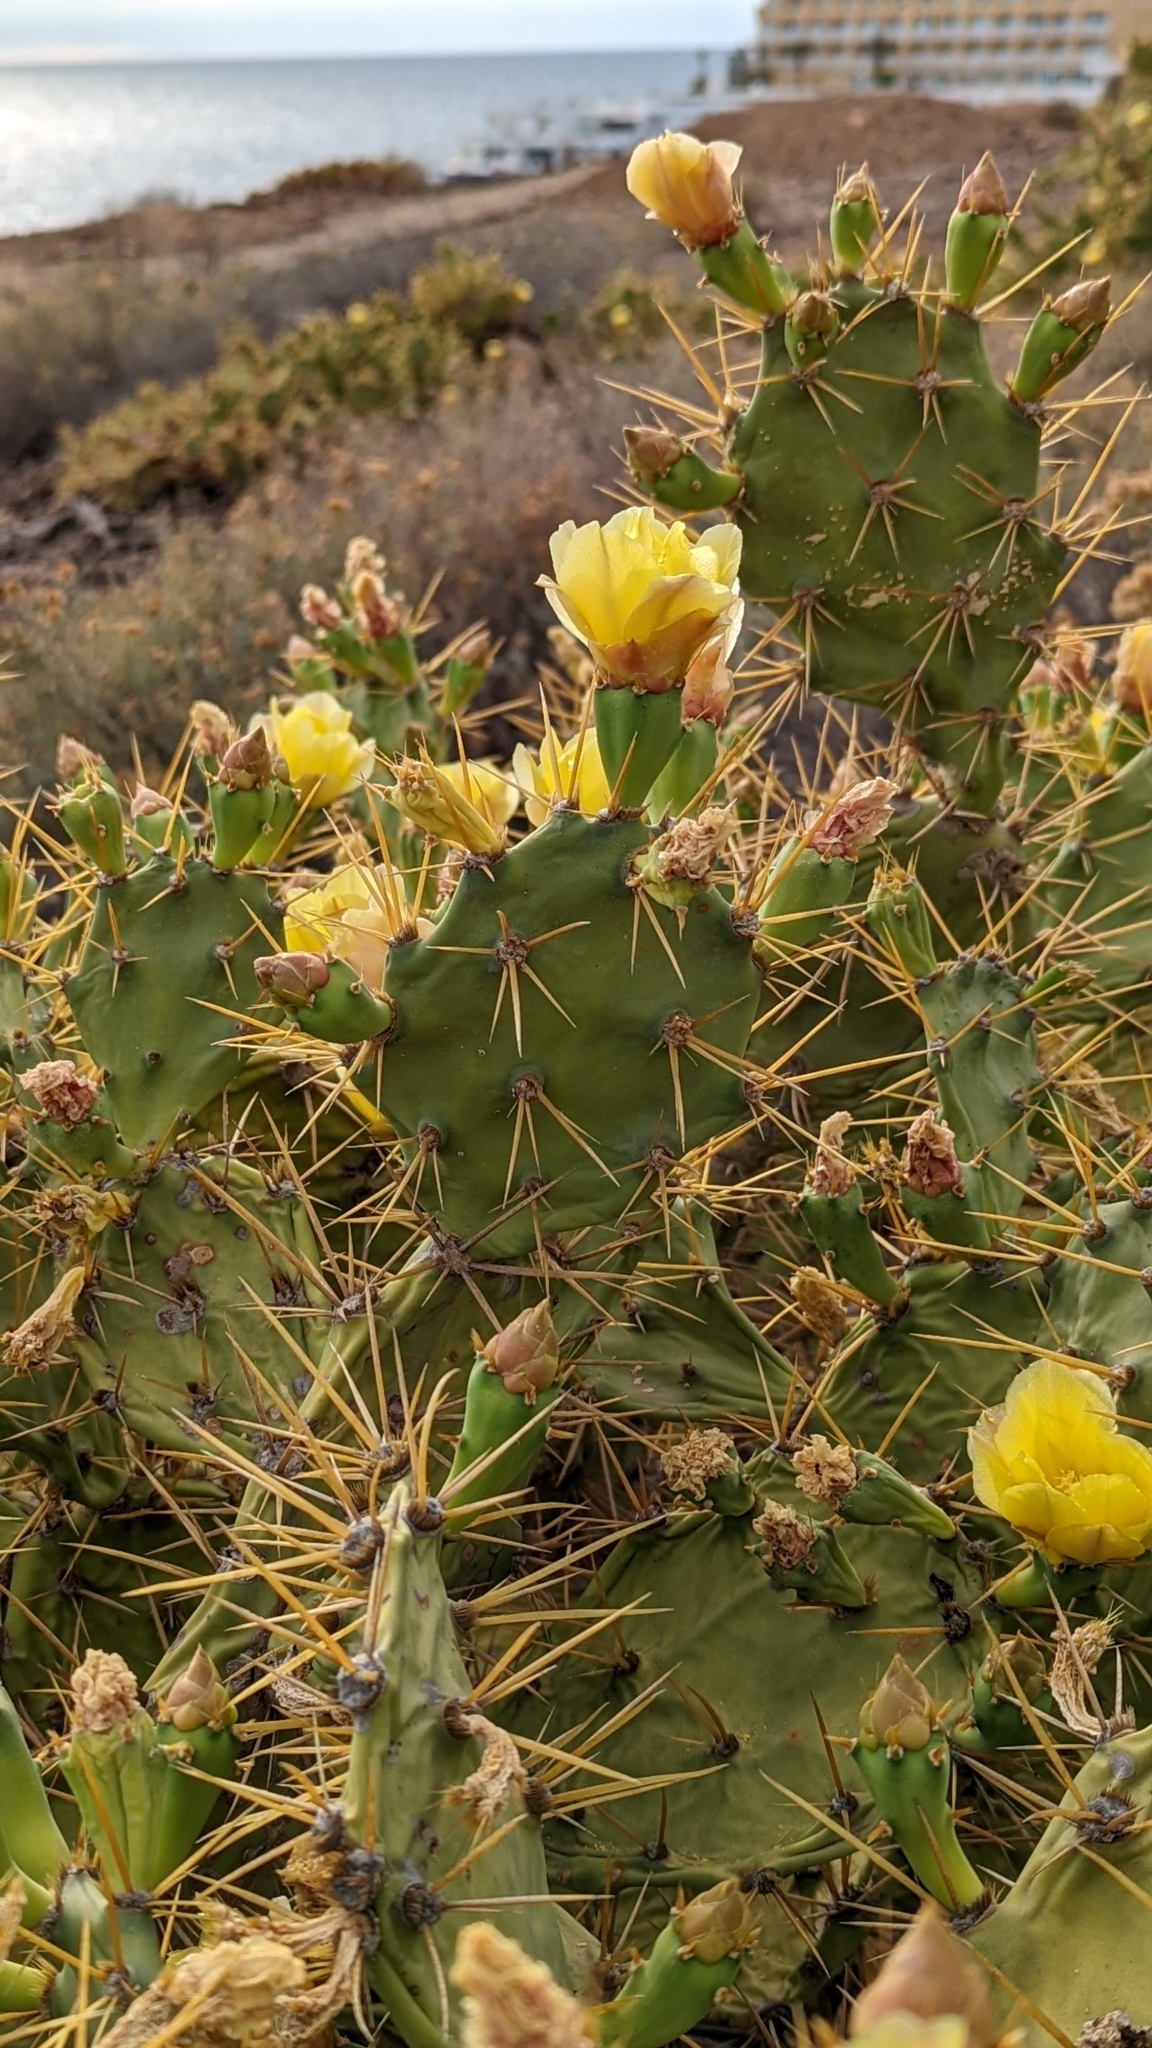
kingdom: Plantae
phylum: Tracheophyta
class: Magnoliopsida
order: Caryophyllales
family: Cactaceae
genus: Opuntia
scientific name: Opuntia stricta
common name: Erect pricklypear
